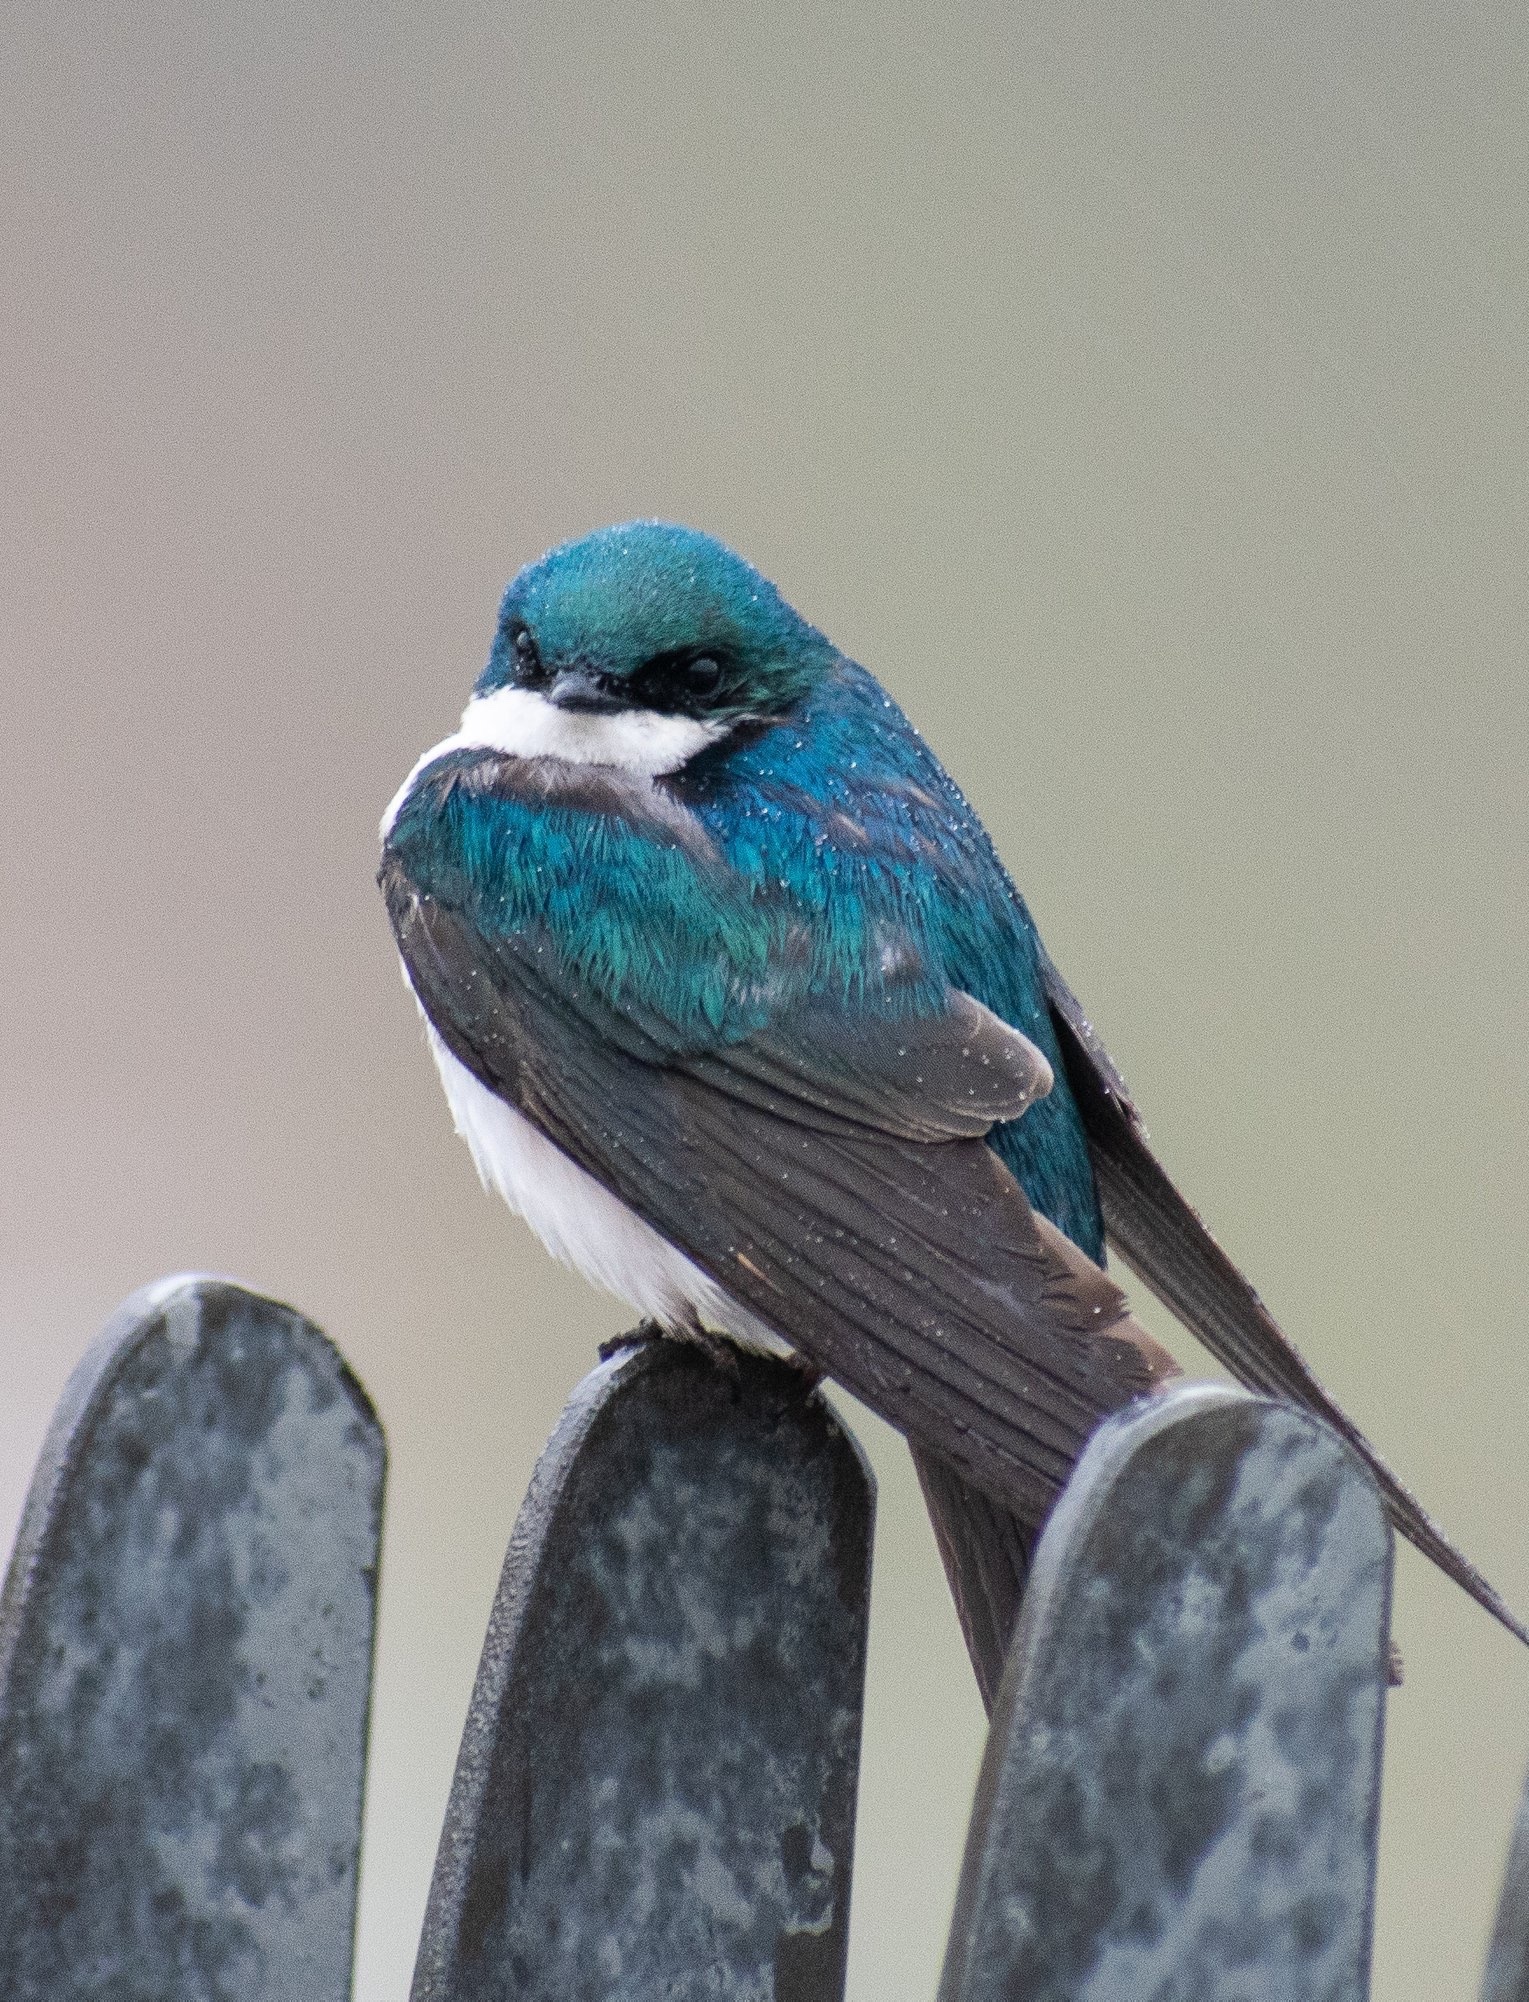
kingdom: Animalia
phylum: Chordata
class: Aves
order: Passeriformes
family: Hirundinidae
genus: Tachycineta
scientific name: Tachycineta bicolor
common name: Tree swallow
